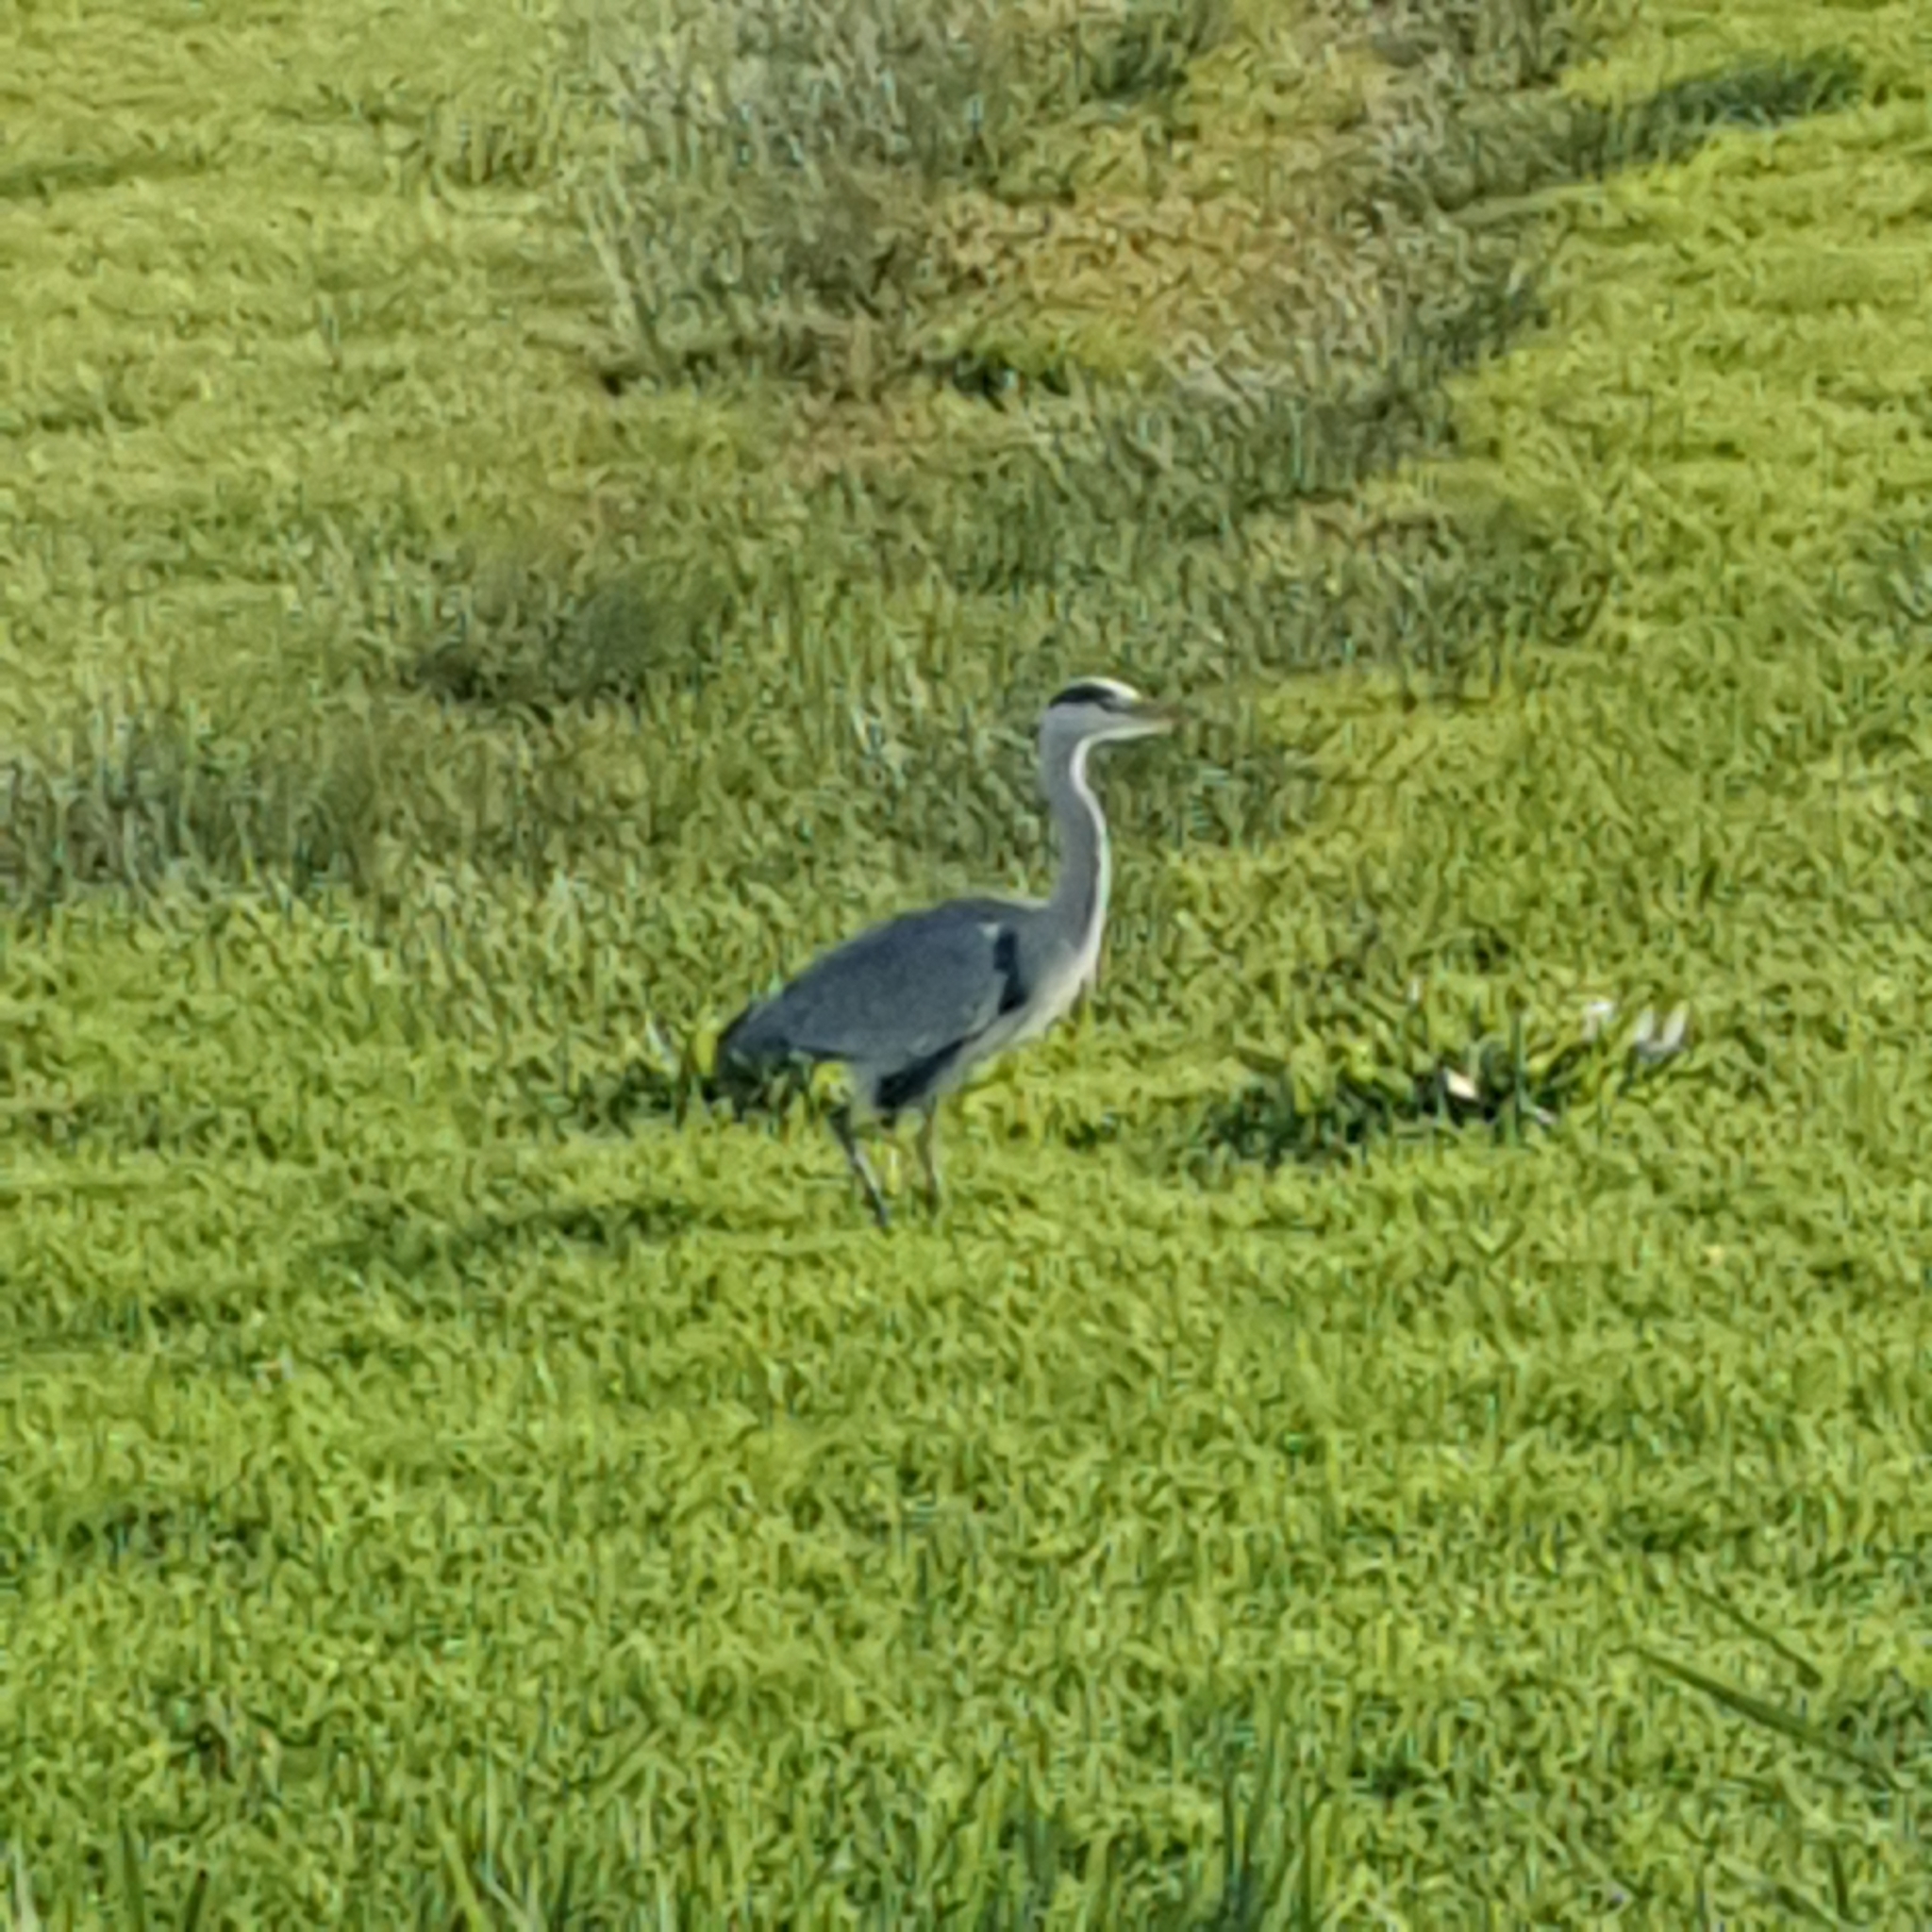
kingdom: Animalia
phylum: Chordata
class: Aves
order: Pelecaniformes
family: Ardeidae
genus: Ardea
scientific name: Ardea cinerea
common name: Grey heron
